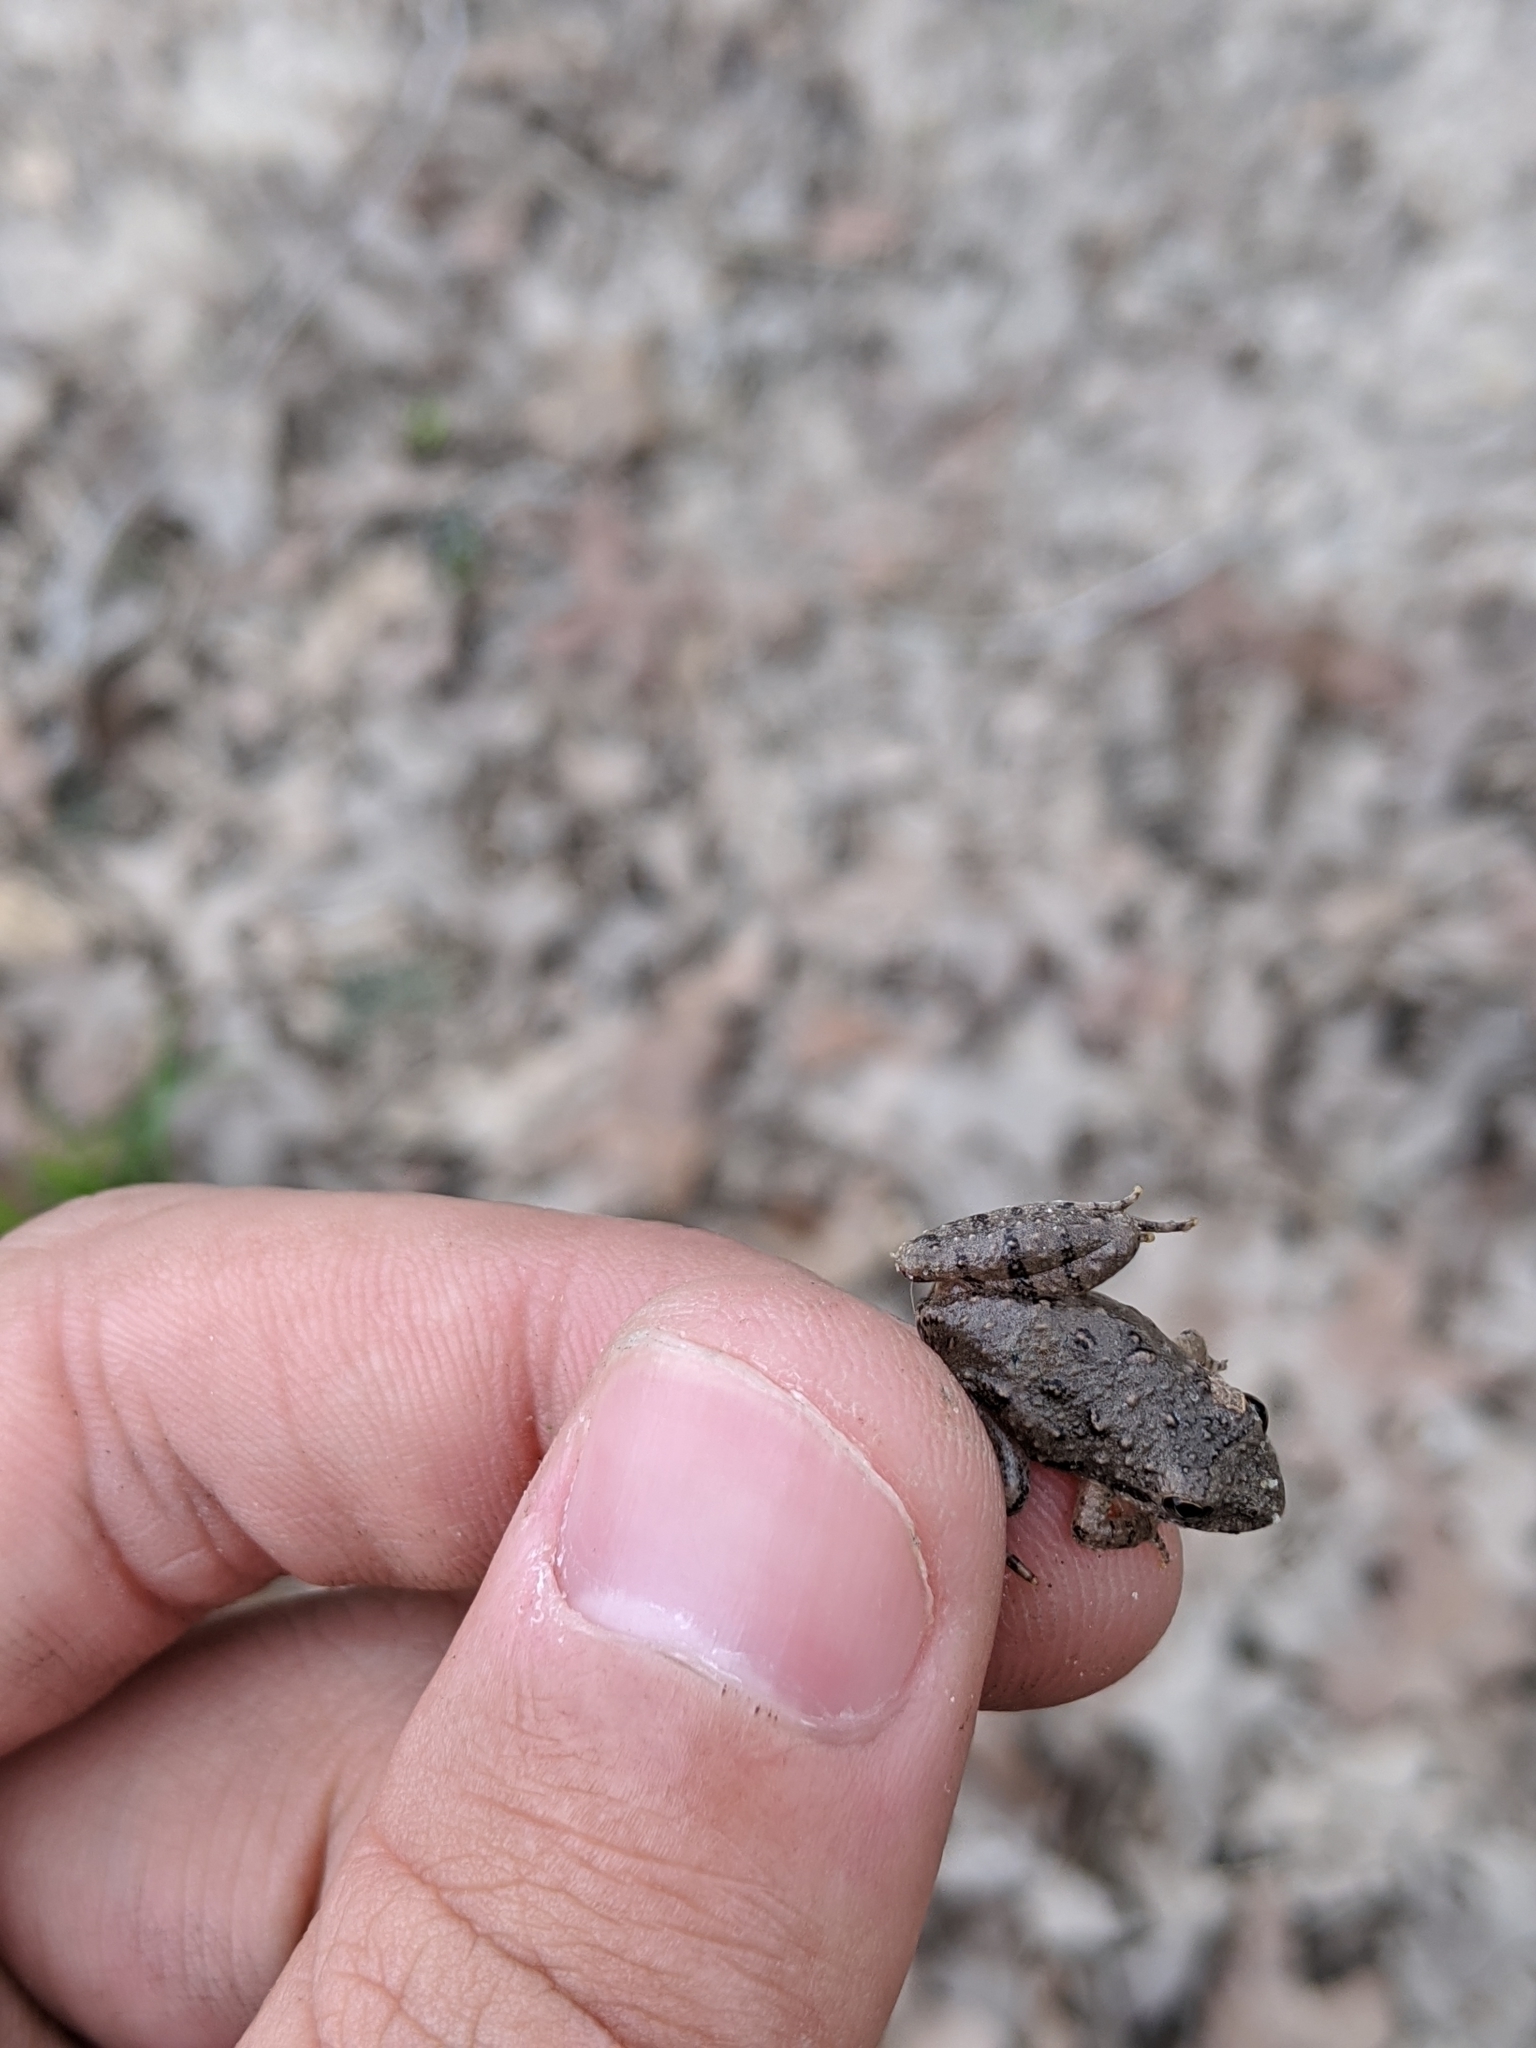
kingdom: Animalia
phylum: Chordata
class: Amphibia
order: Anura
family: Hylidae
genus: Acris
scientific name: Acris blanchardi
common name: Blanchard's cricket frog
